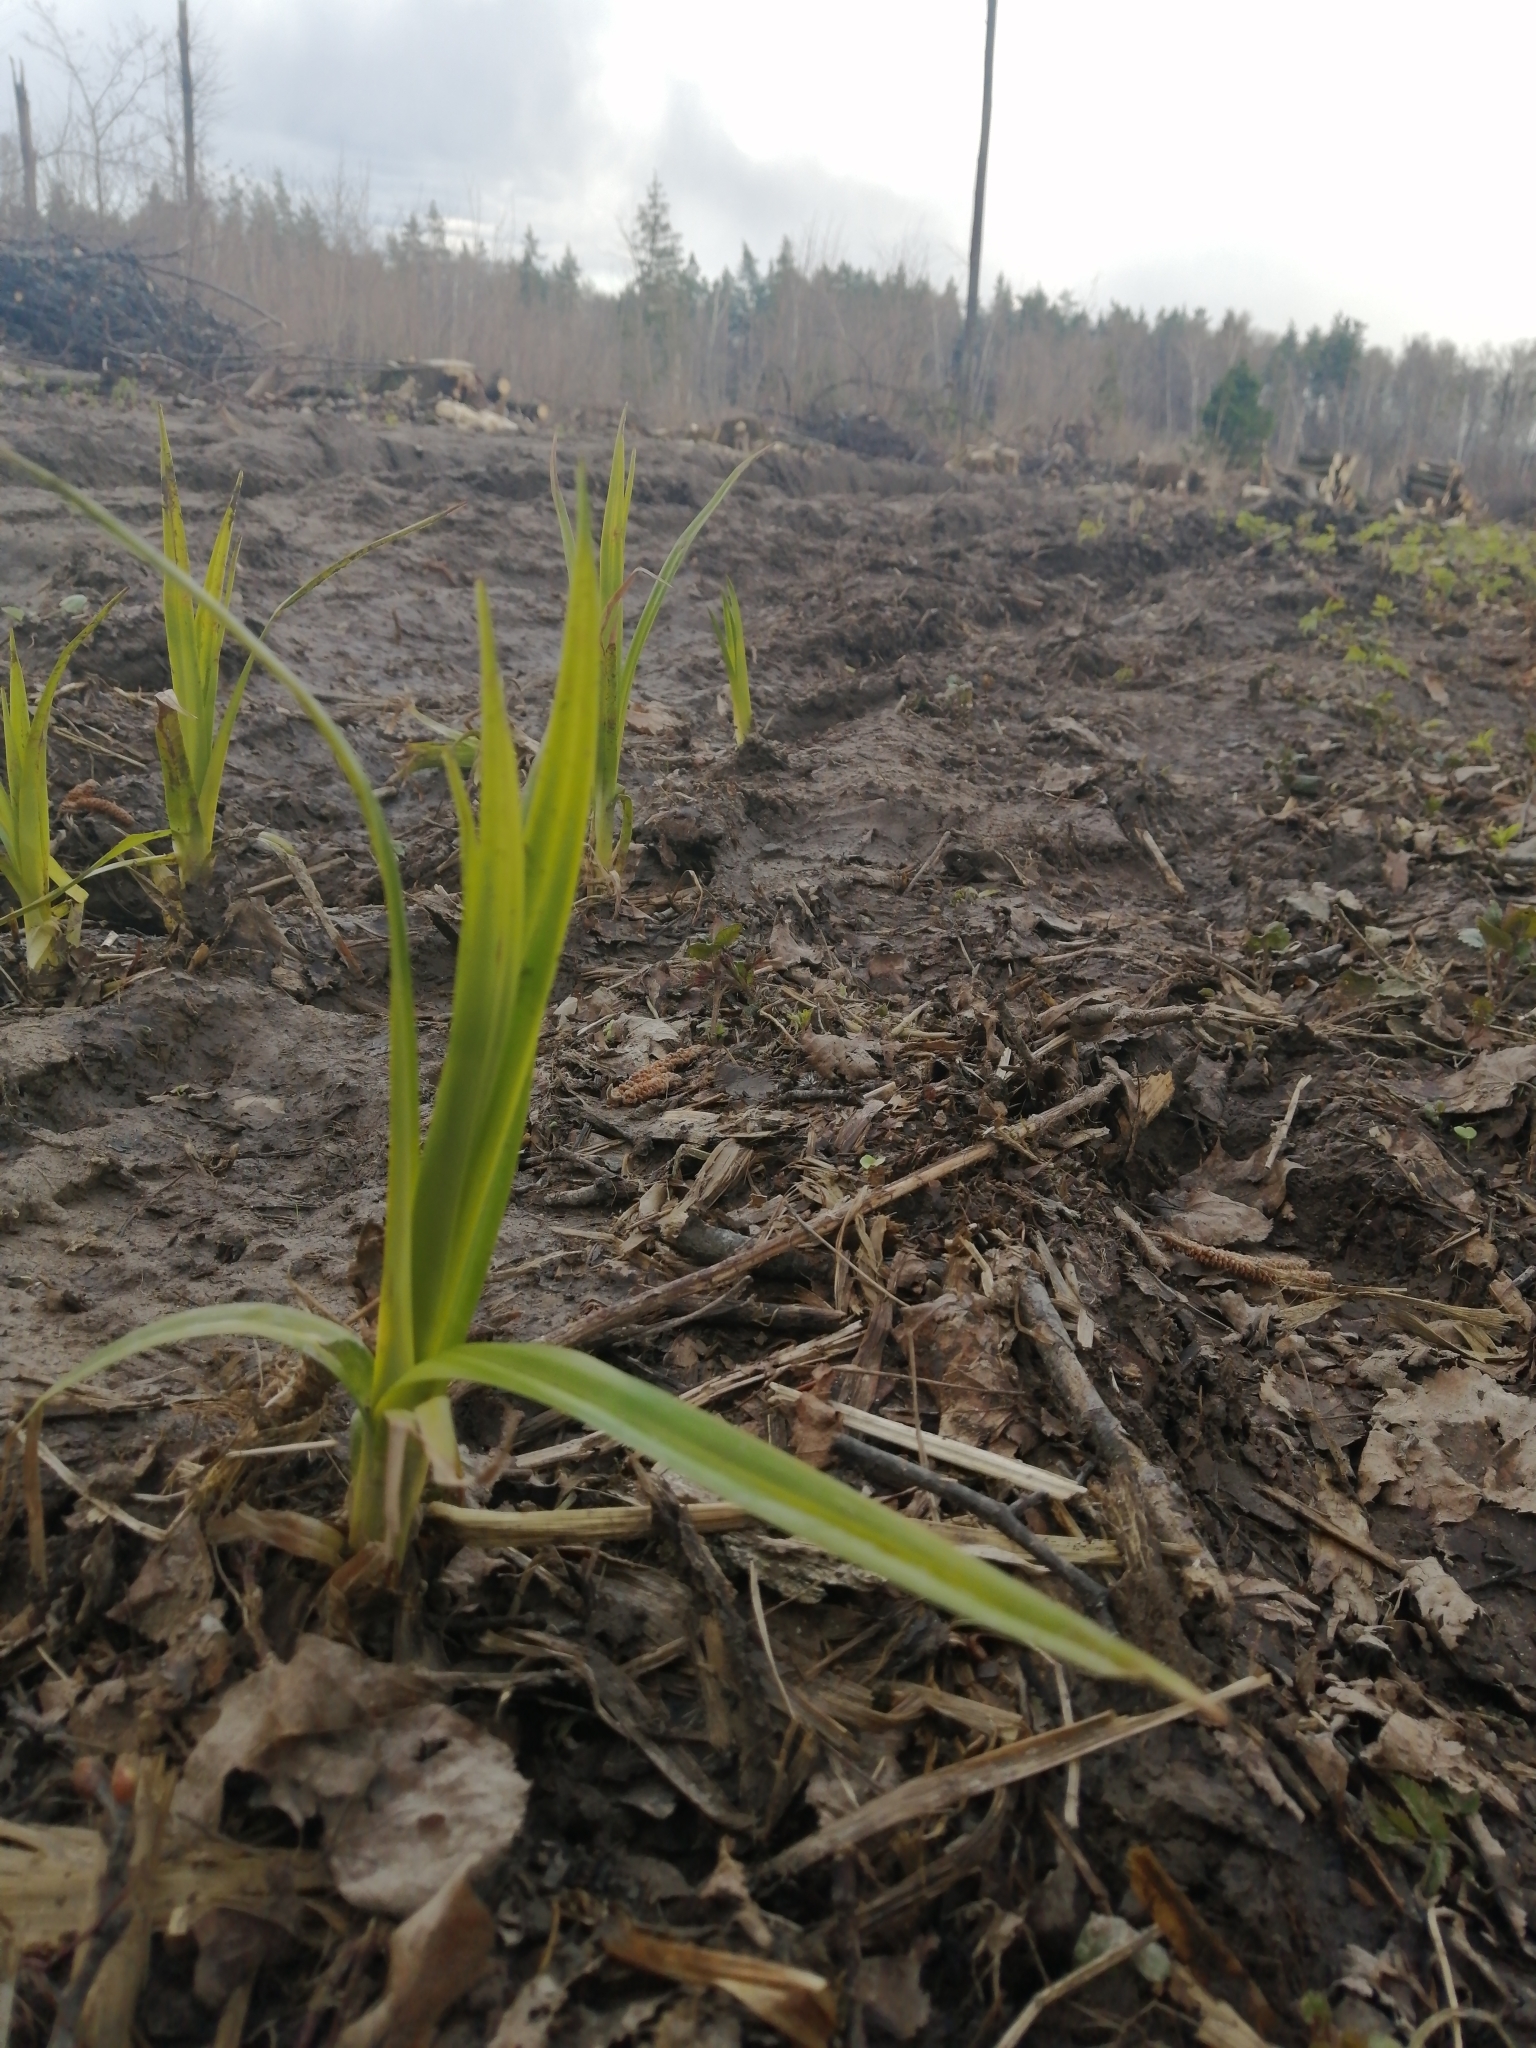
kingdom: Plantae
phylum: Tracheophyta
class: Liliopsida
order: Poales
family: Cyperaceae
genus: Scirpus
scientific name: Scirpus sylvaticus
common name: Wood club-rush
